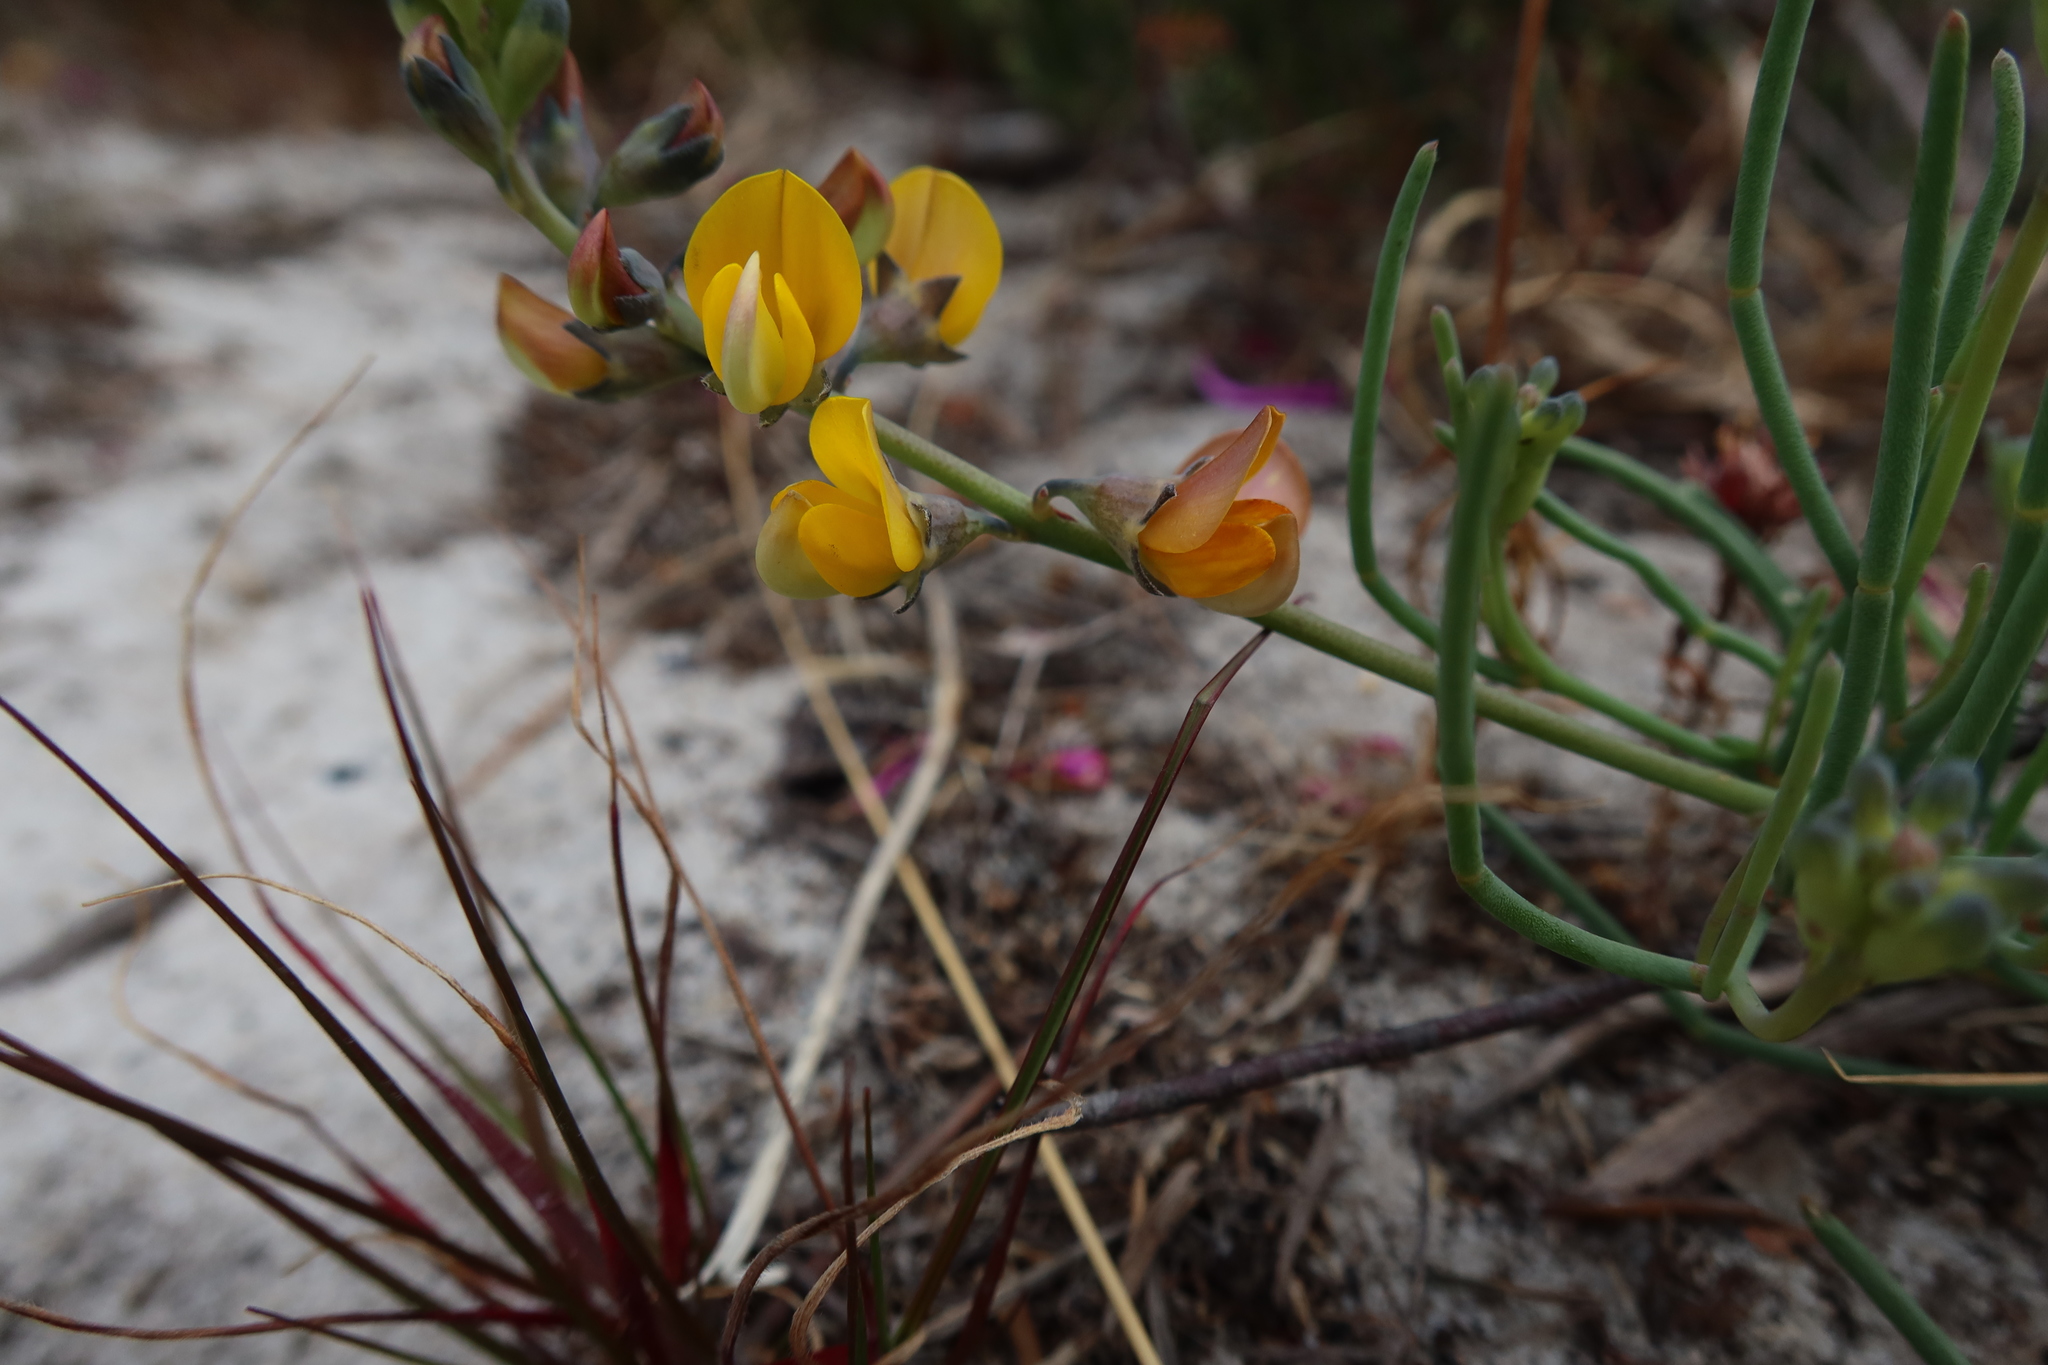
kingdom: Plantae
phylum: Tracheophyta
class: Magnoliopsida
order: Fabales
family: Fabaceae
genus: Lebeckia
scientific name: Lebeckia meyeriana
